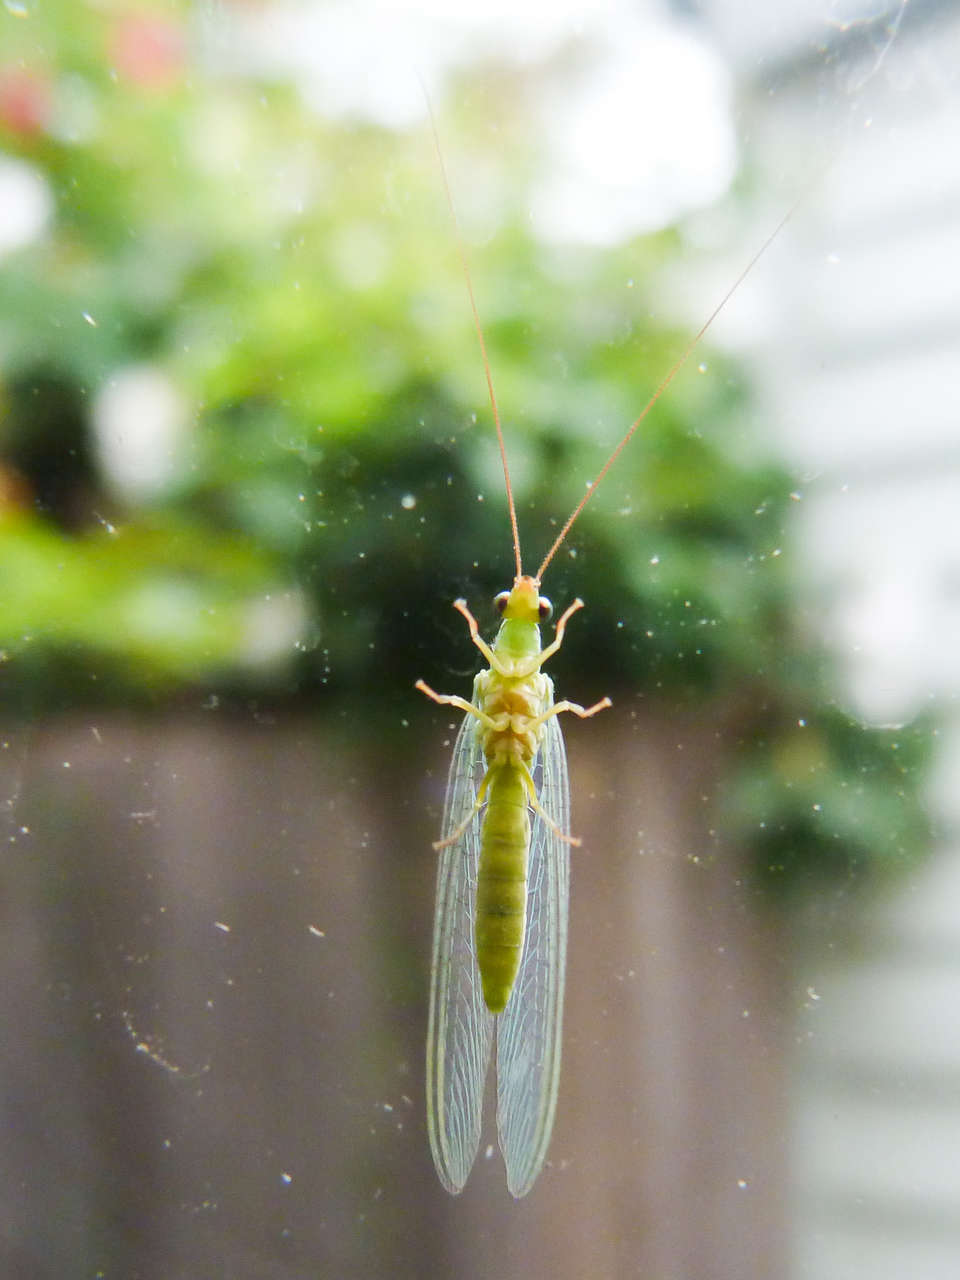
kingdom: Animalia
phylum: Arthropoda
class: Insecta
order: Neuroptera
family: Chrysopidae
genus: Mallada
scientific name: Mallada signatus
